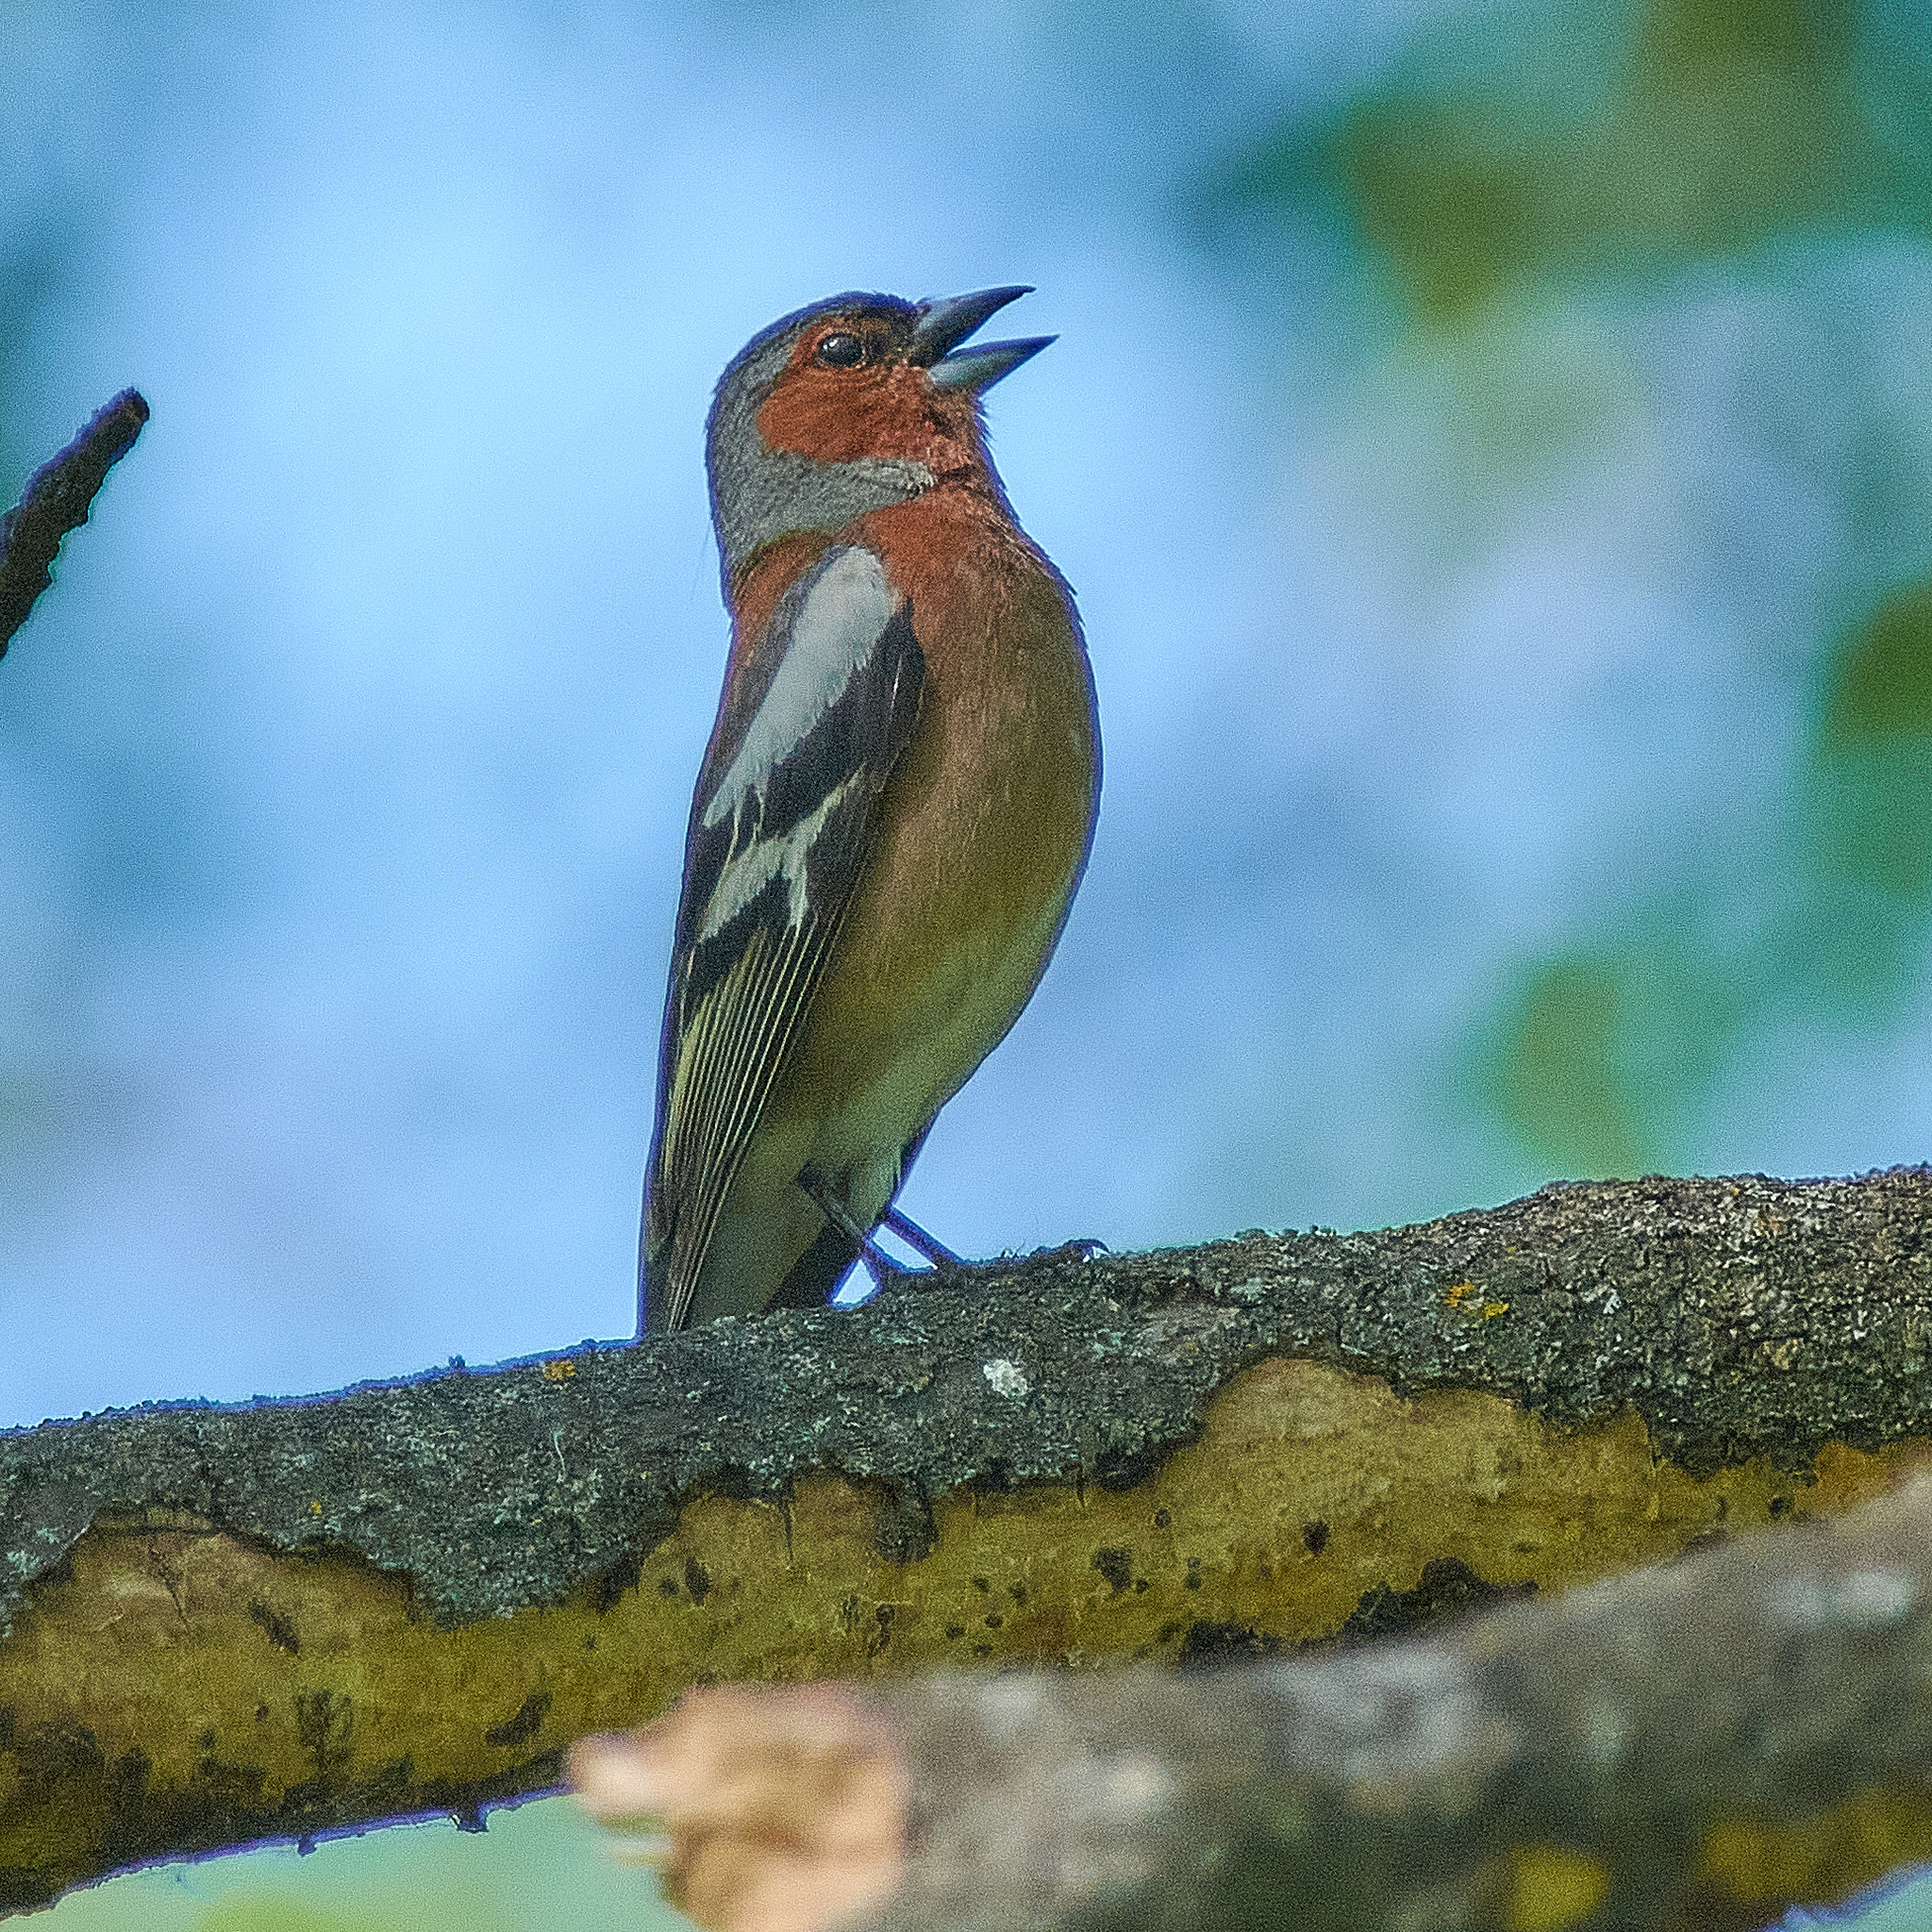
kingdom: Animalia
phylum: Chordata
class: Aves
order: Passeriformes
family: Fringillidae
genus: Fringilla
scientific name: Fringilla coelebs
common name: Common chaffinch
